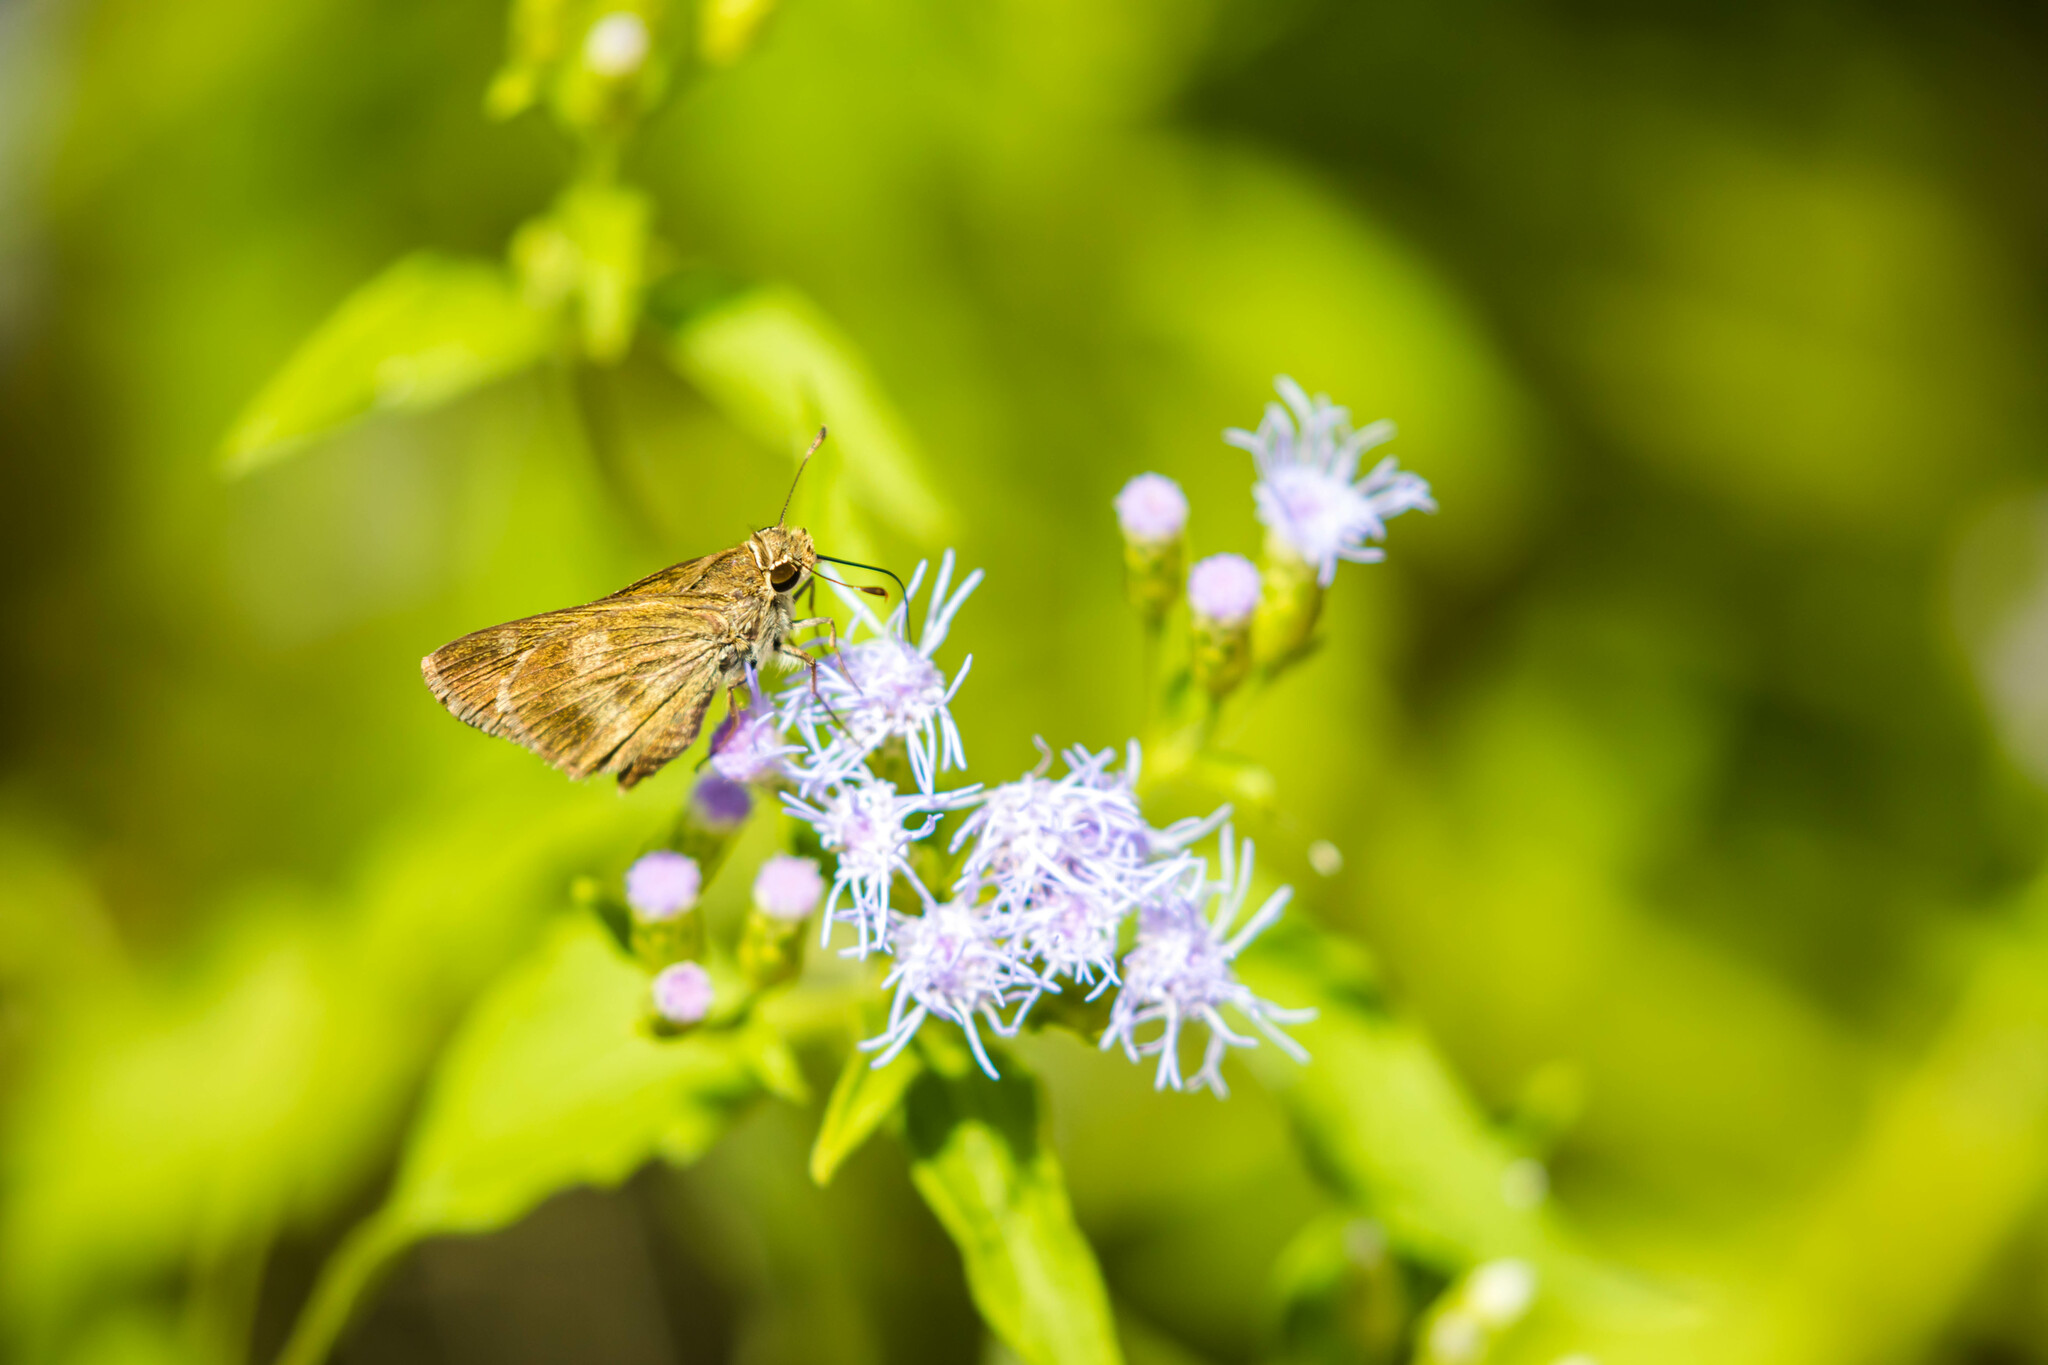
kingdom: Animalia
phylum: Arthropoda
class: Insecta
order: Lepidoptera
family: Hesperiidae
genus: Polites
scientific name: Polites vibex
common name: Whirlabout
